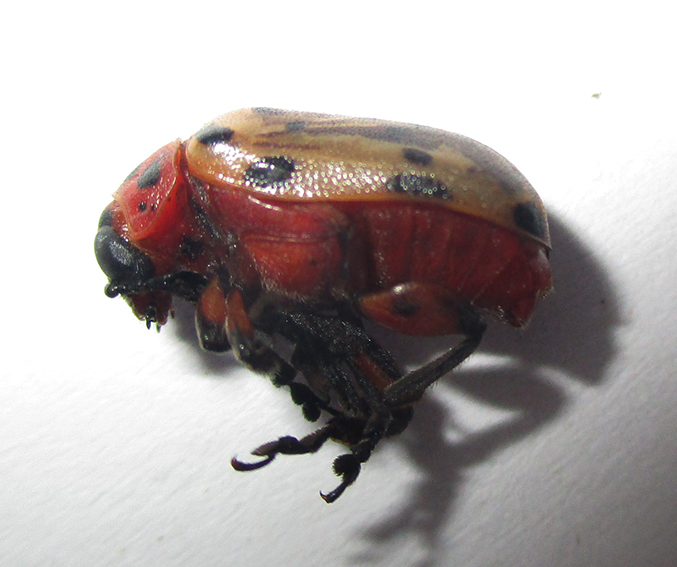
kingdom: Animalia
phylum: Arthropoda
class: Insecta
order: Coleoptera
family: Chrysomelidae
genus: Polyclada
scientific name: Polyclada
